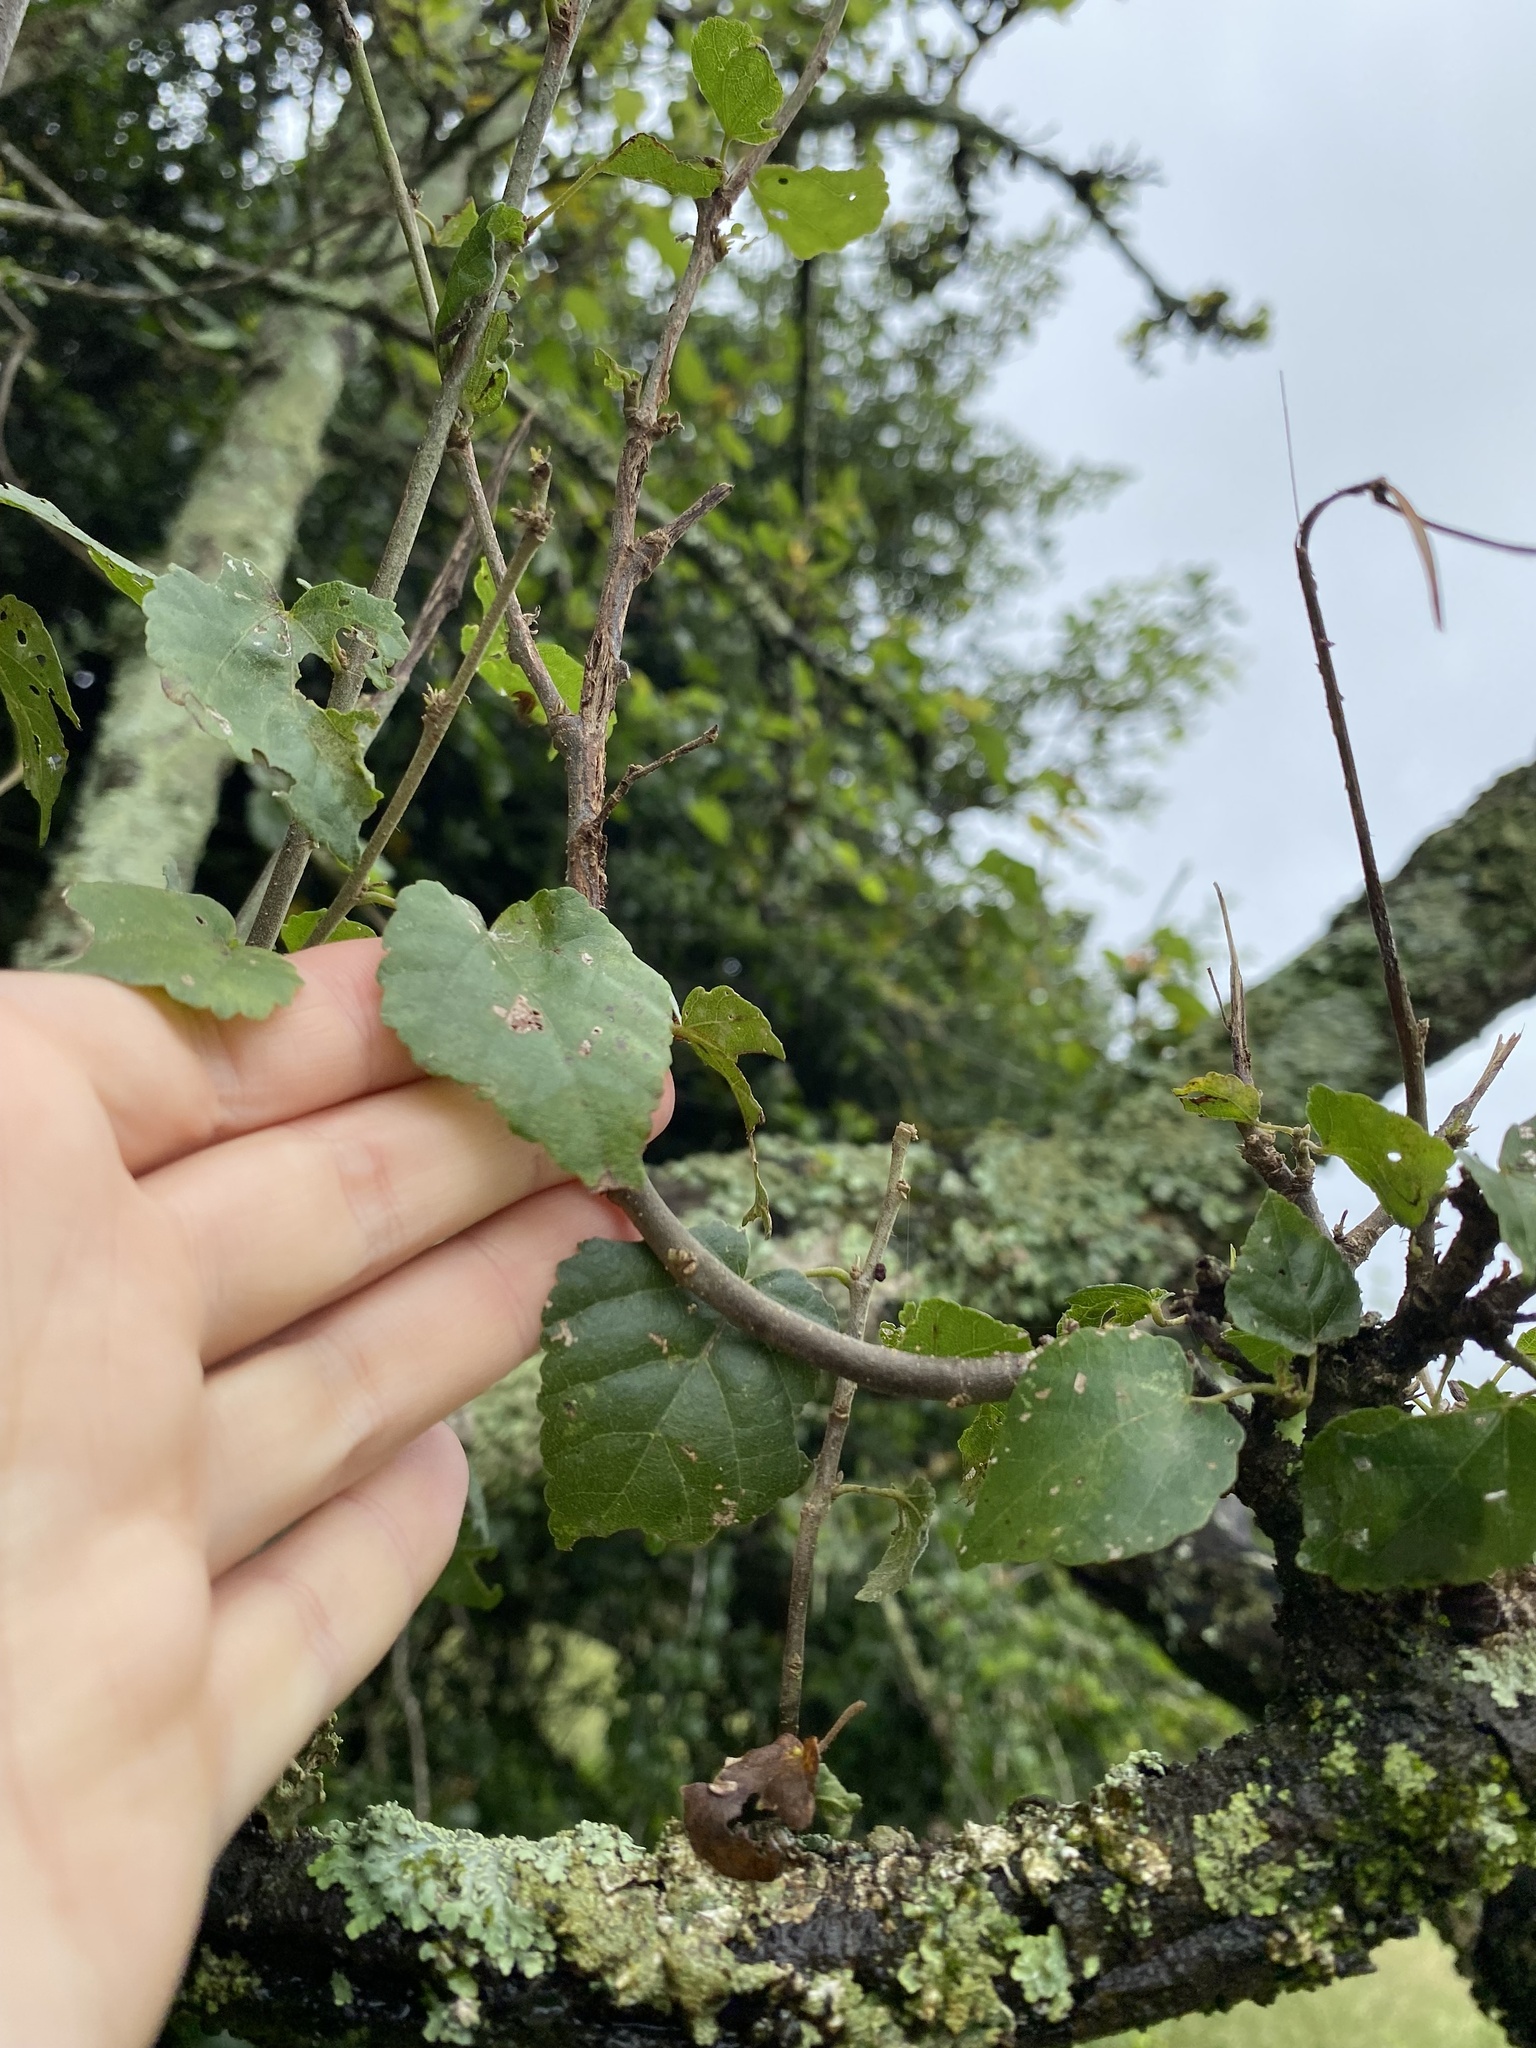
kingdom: Plantae
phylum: Tracheophyta
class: Magnoliopsida
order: Malvales
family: Malvaceae
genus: Dombeya
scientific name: Dombeya tiliacea
